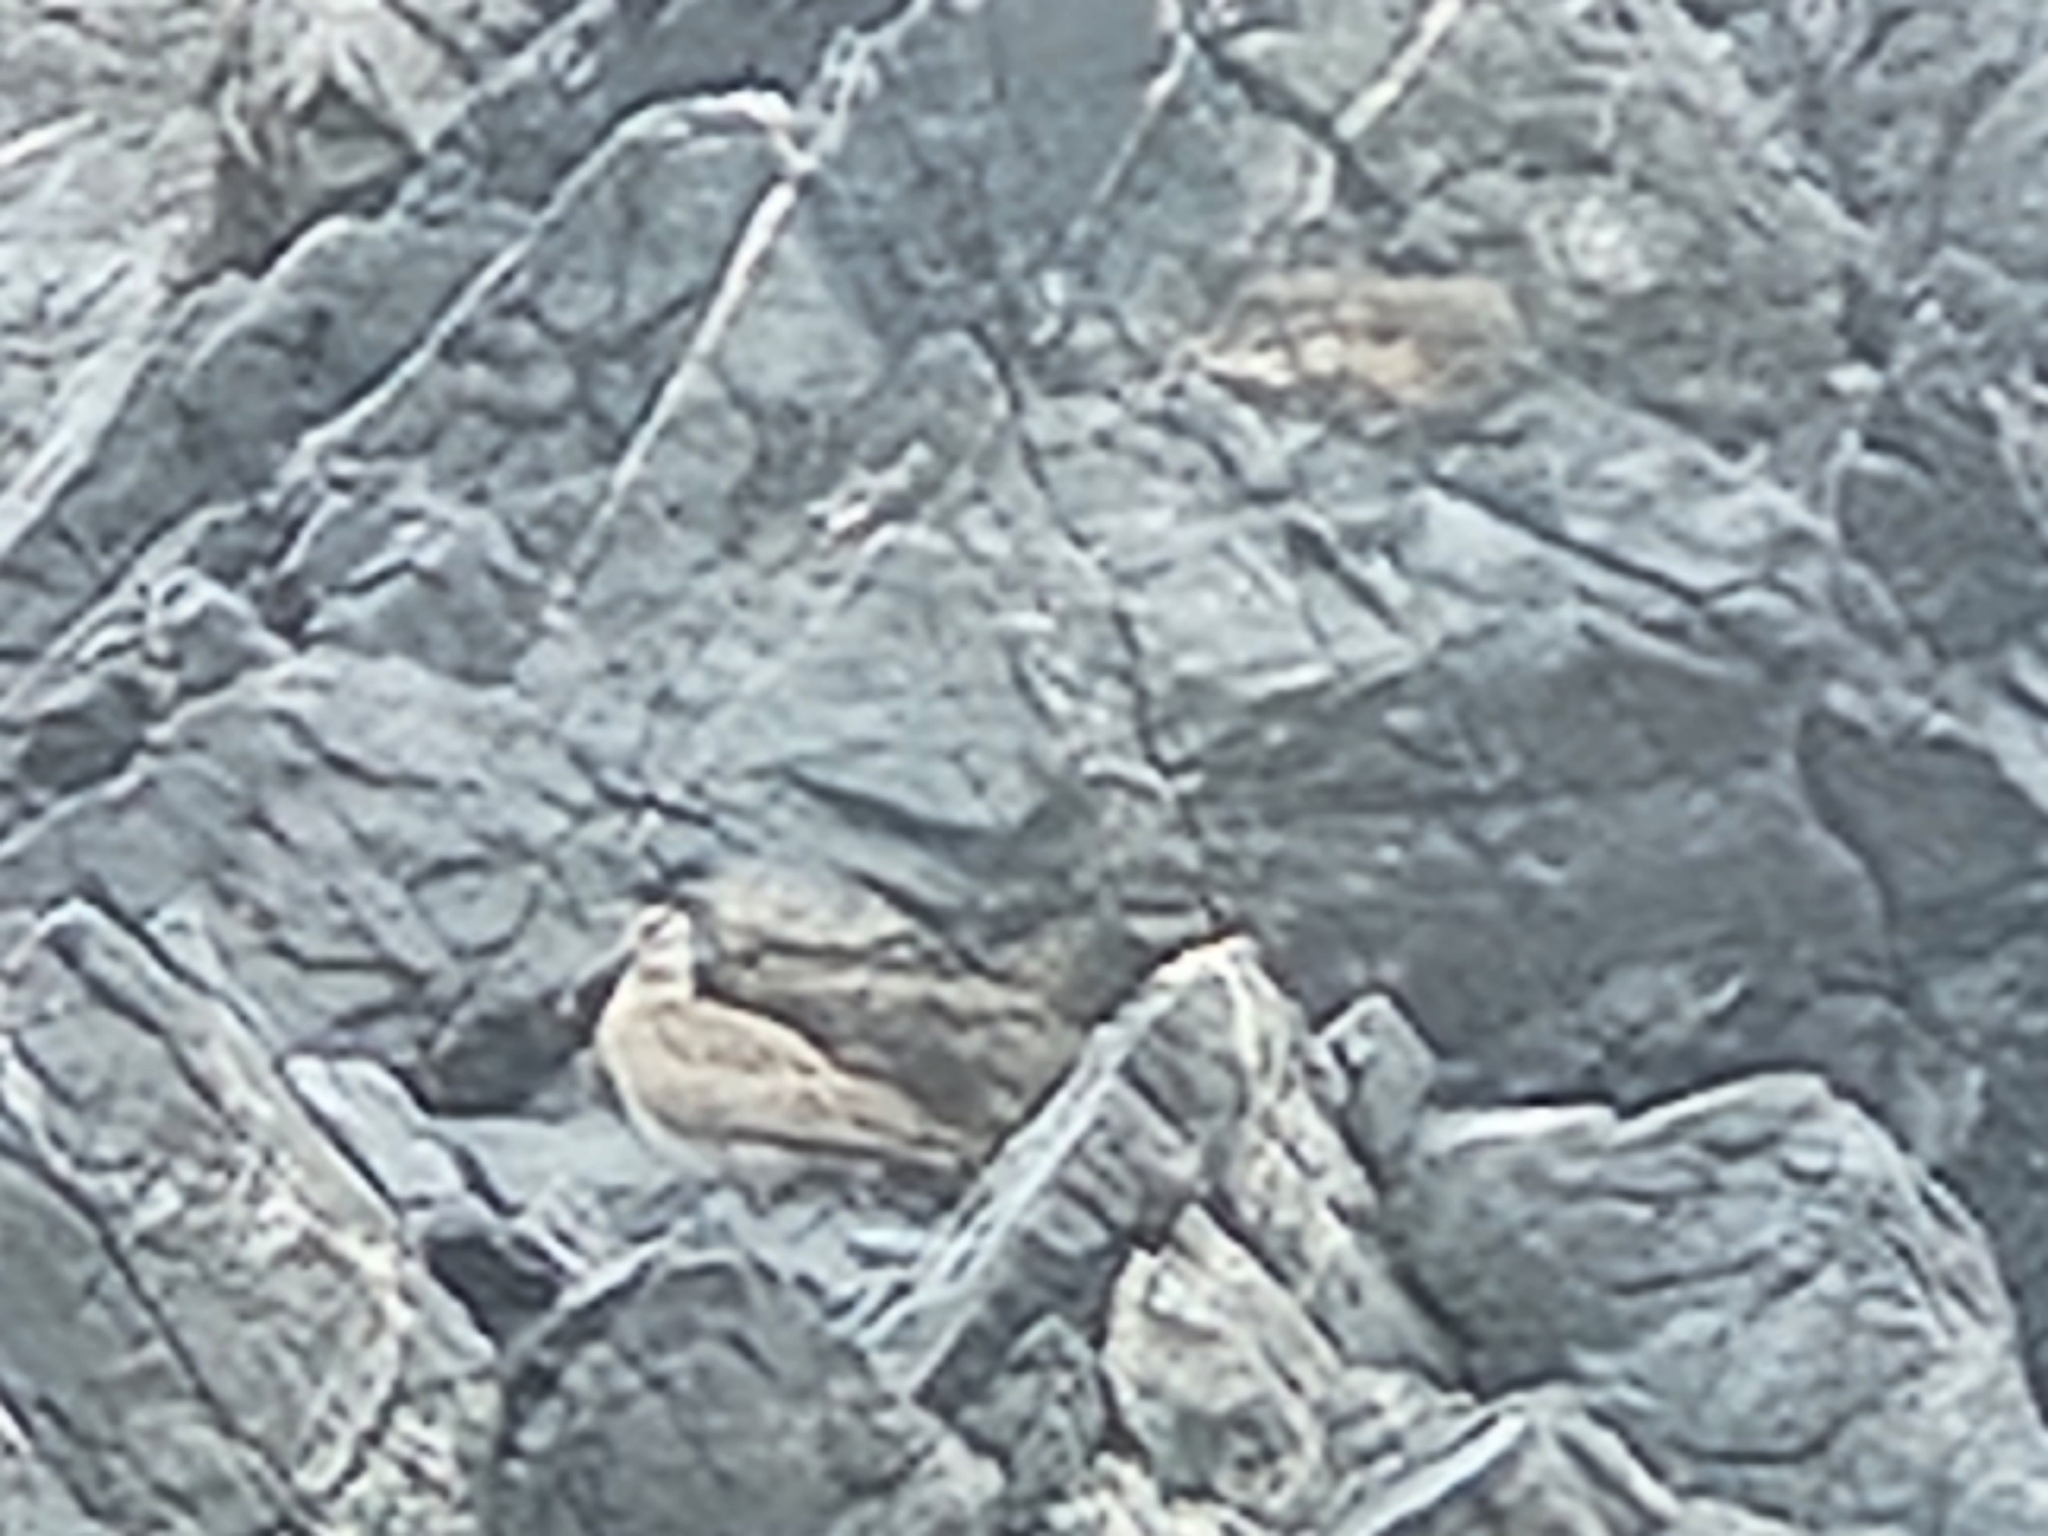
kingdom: Animalia
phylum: Chordata
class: Aves
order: Charadriiformes
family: Scolopacidae
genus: Numenius
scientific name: Numenius phaeopus
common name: Whimbrel
